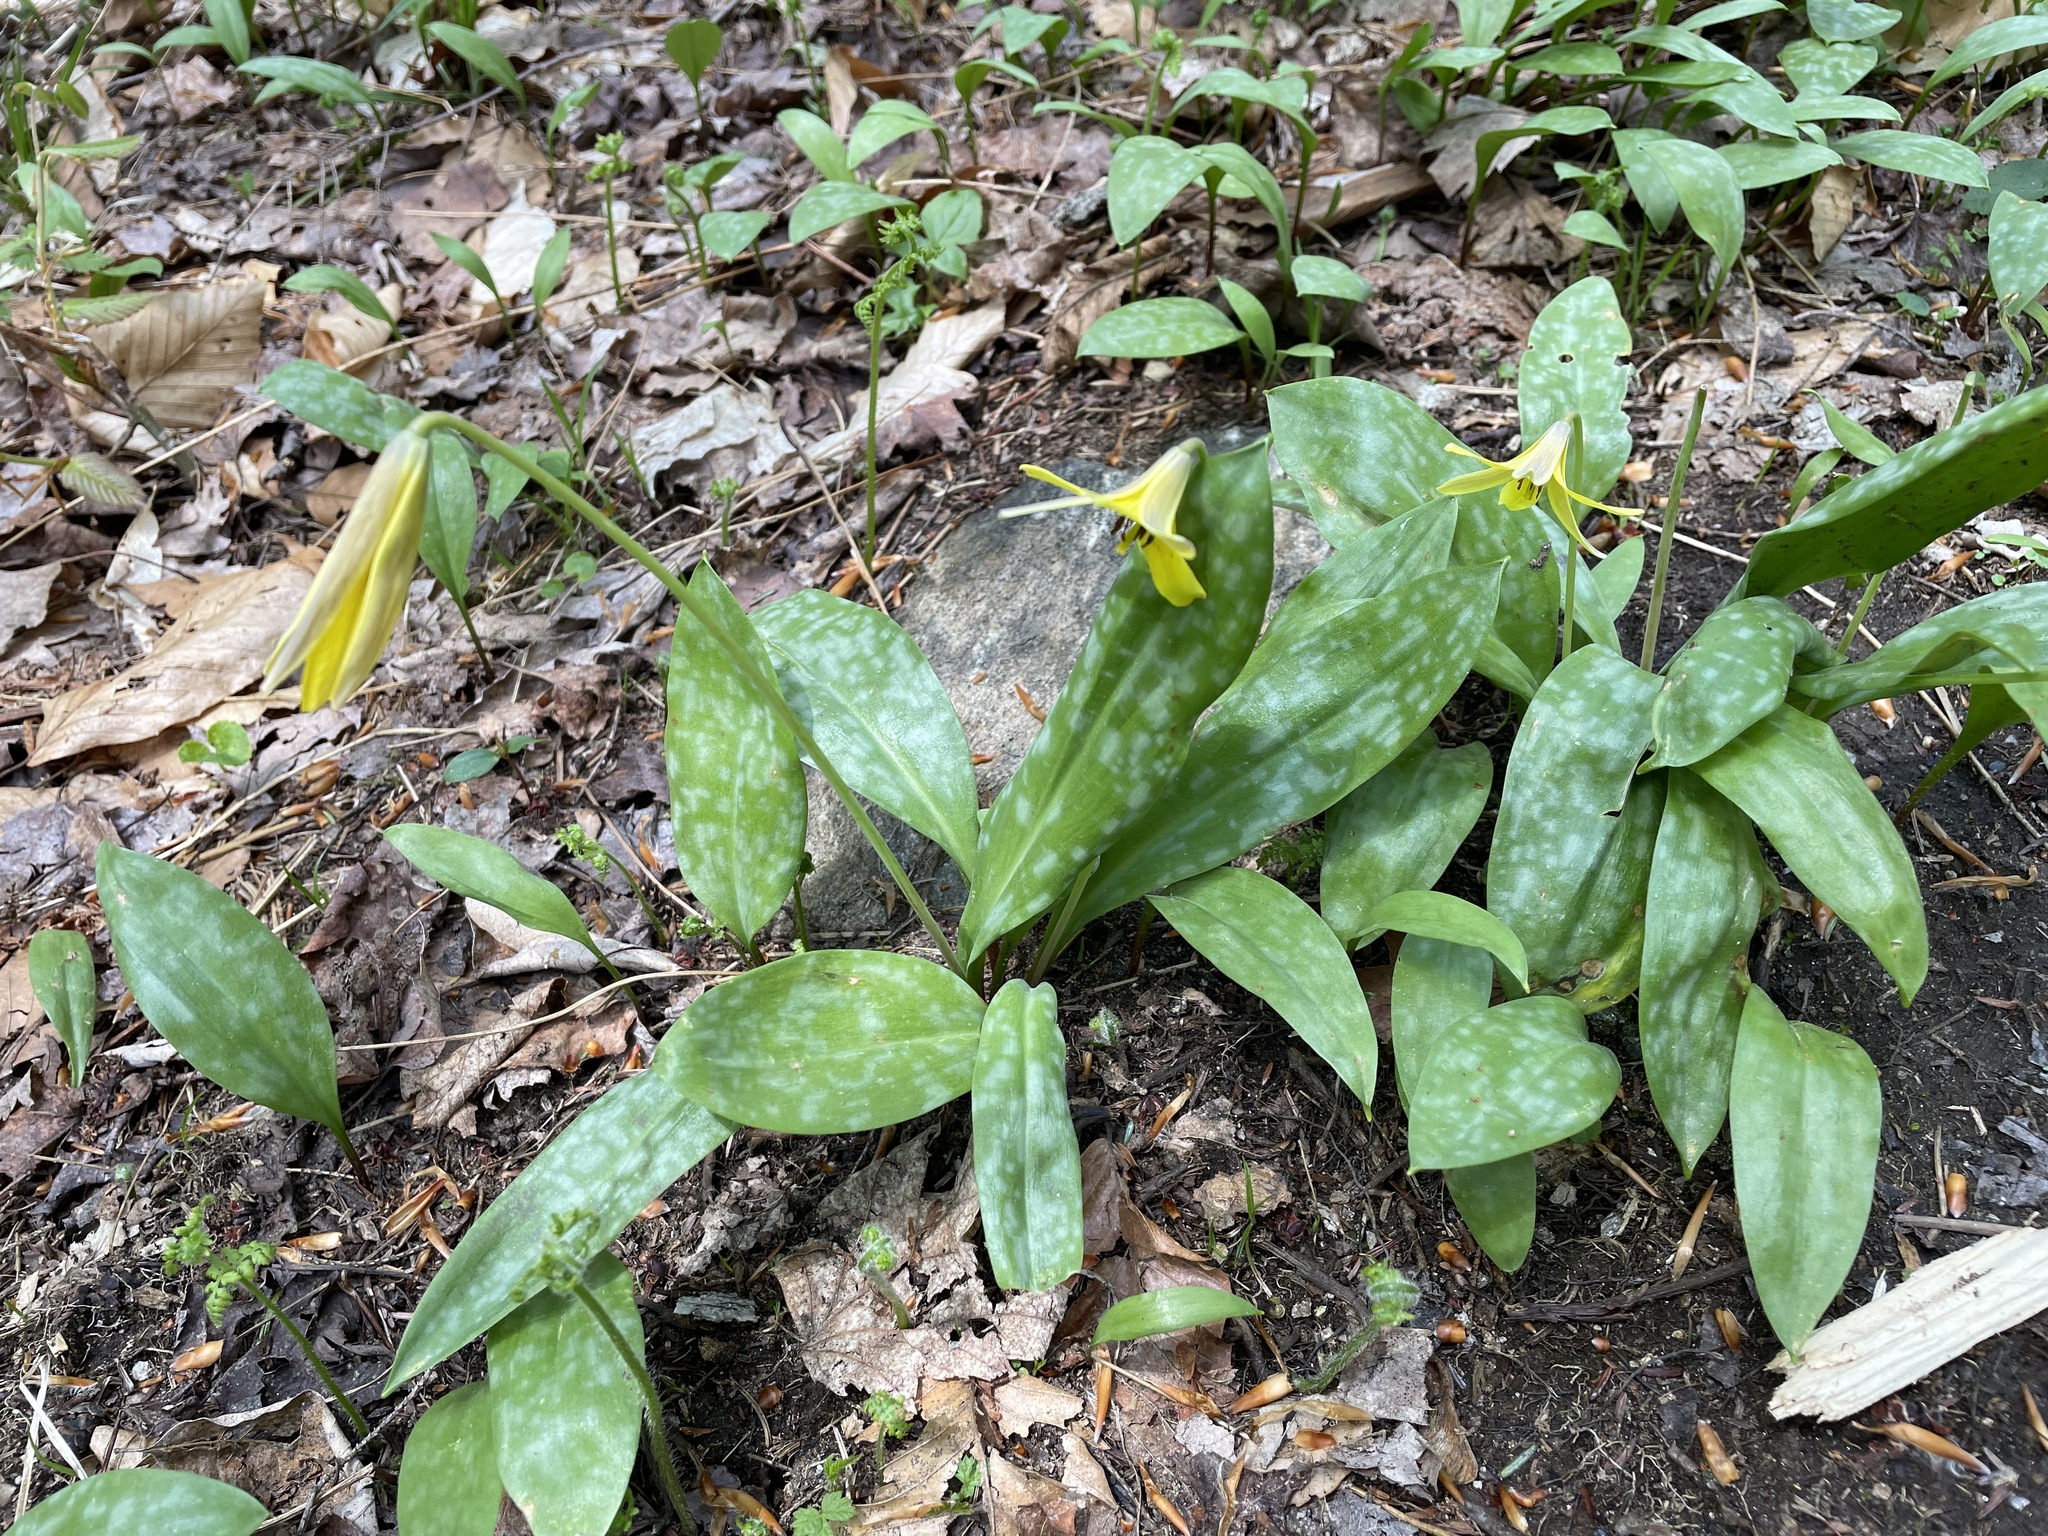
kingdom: Plantae
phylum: Tracheophyta
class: Liliopsida
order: Liliales
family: Liliaceae
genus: Erythronium
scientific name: Erythronium americanum
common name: Yellow adder's-tongue
